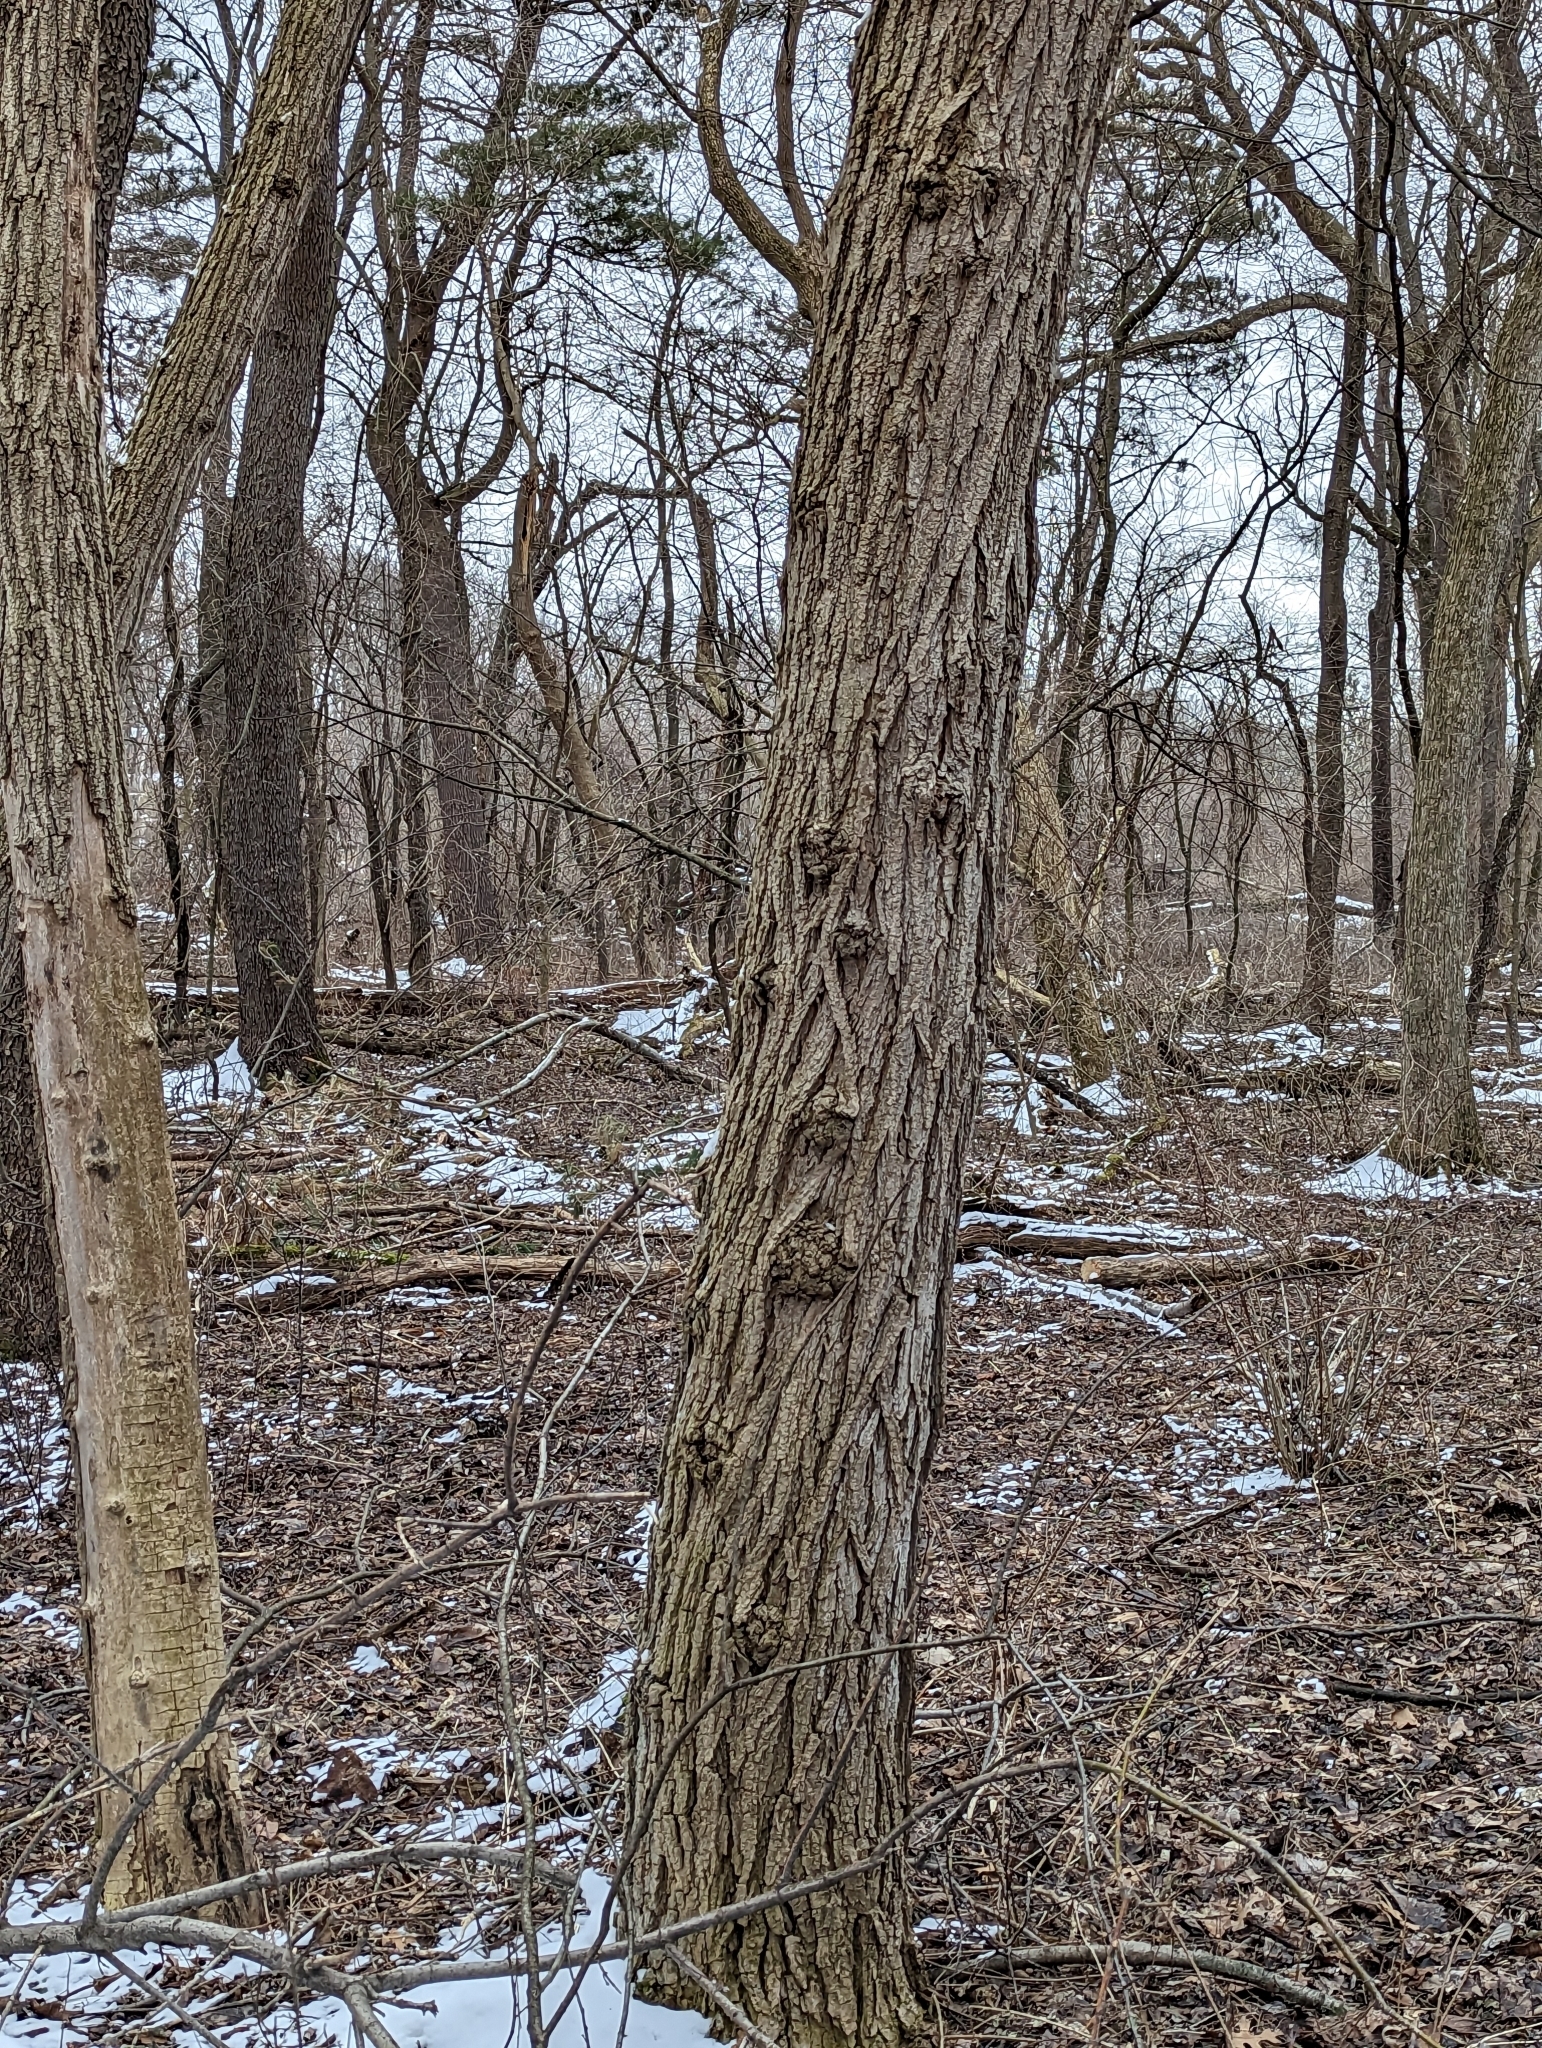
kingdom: Plantae
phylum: Tracheophyta
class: Magnoliopsida
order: Fabales
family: Fabaceae
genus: Robinia
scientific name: Robinia pseudoacacia
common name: Black locust
